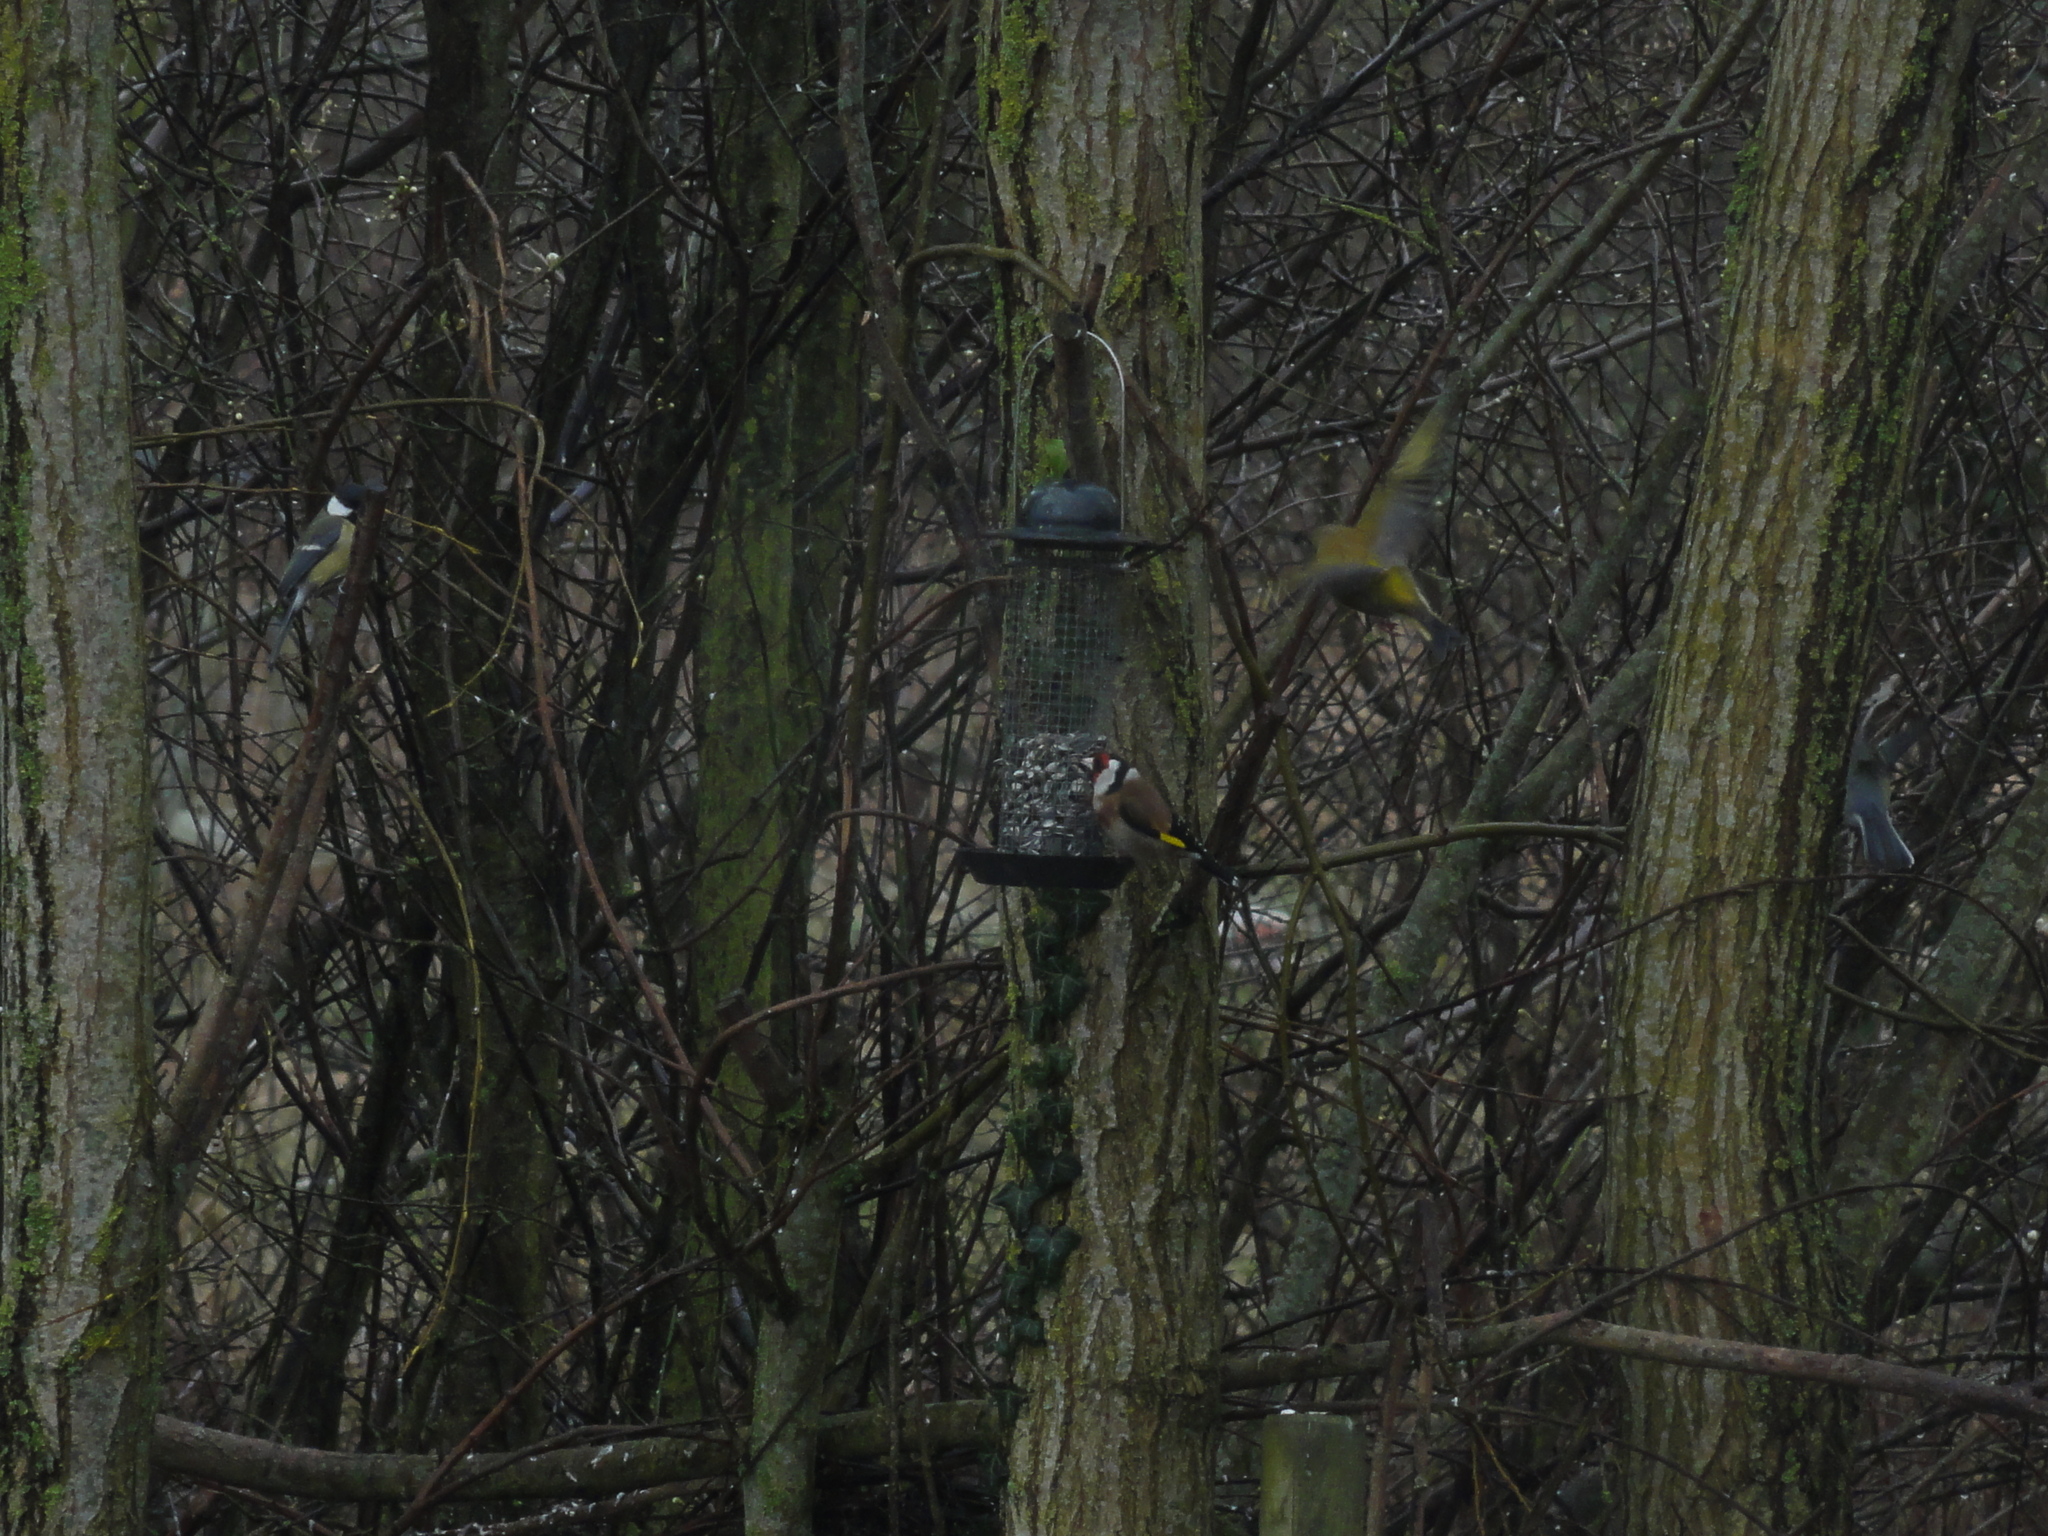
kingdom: Animalia
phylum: Chordata
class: Aves
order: Passeriformes
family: Fringillidae
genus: Carduelis
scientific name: Carduelis carduelis
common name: European goldfinch
